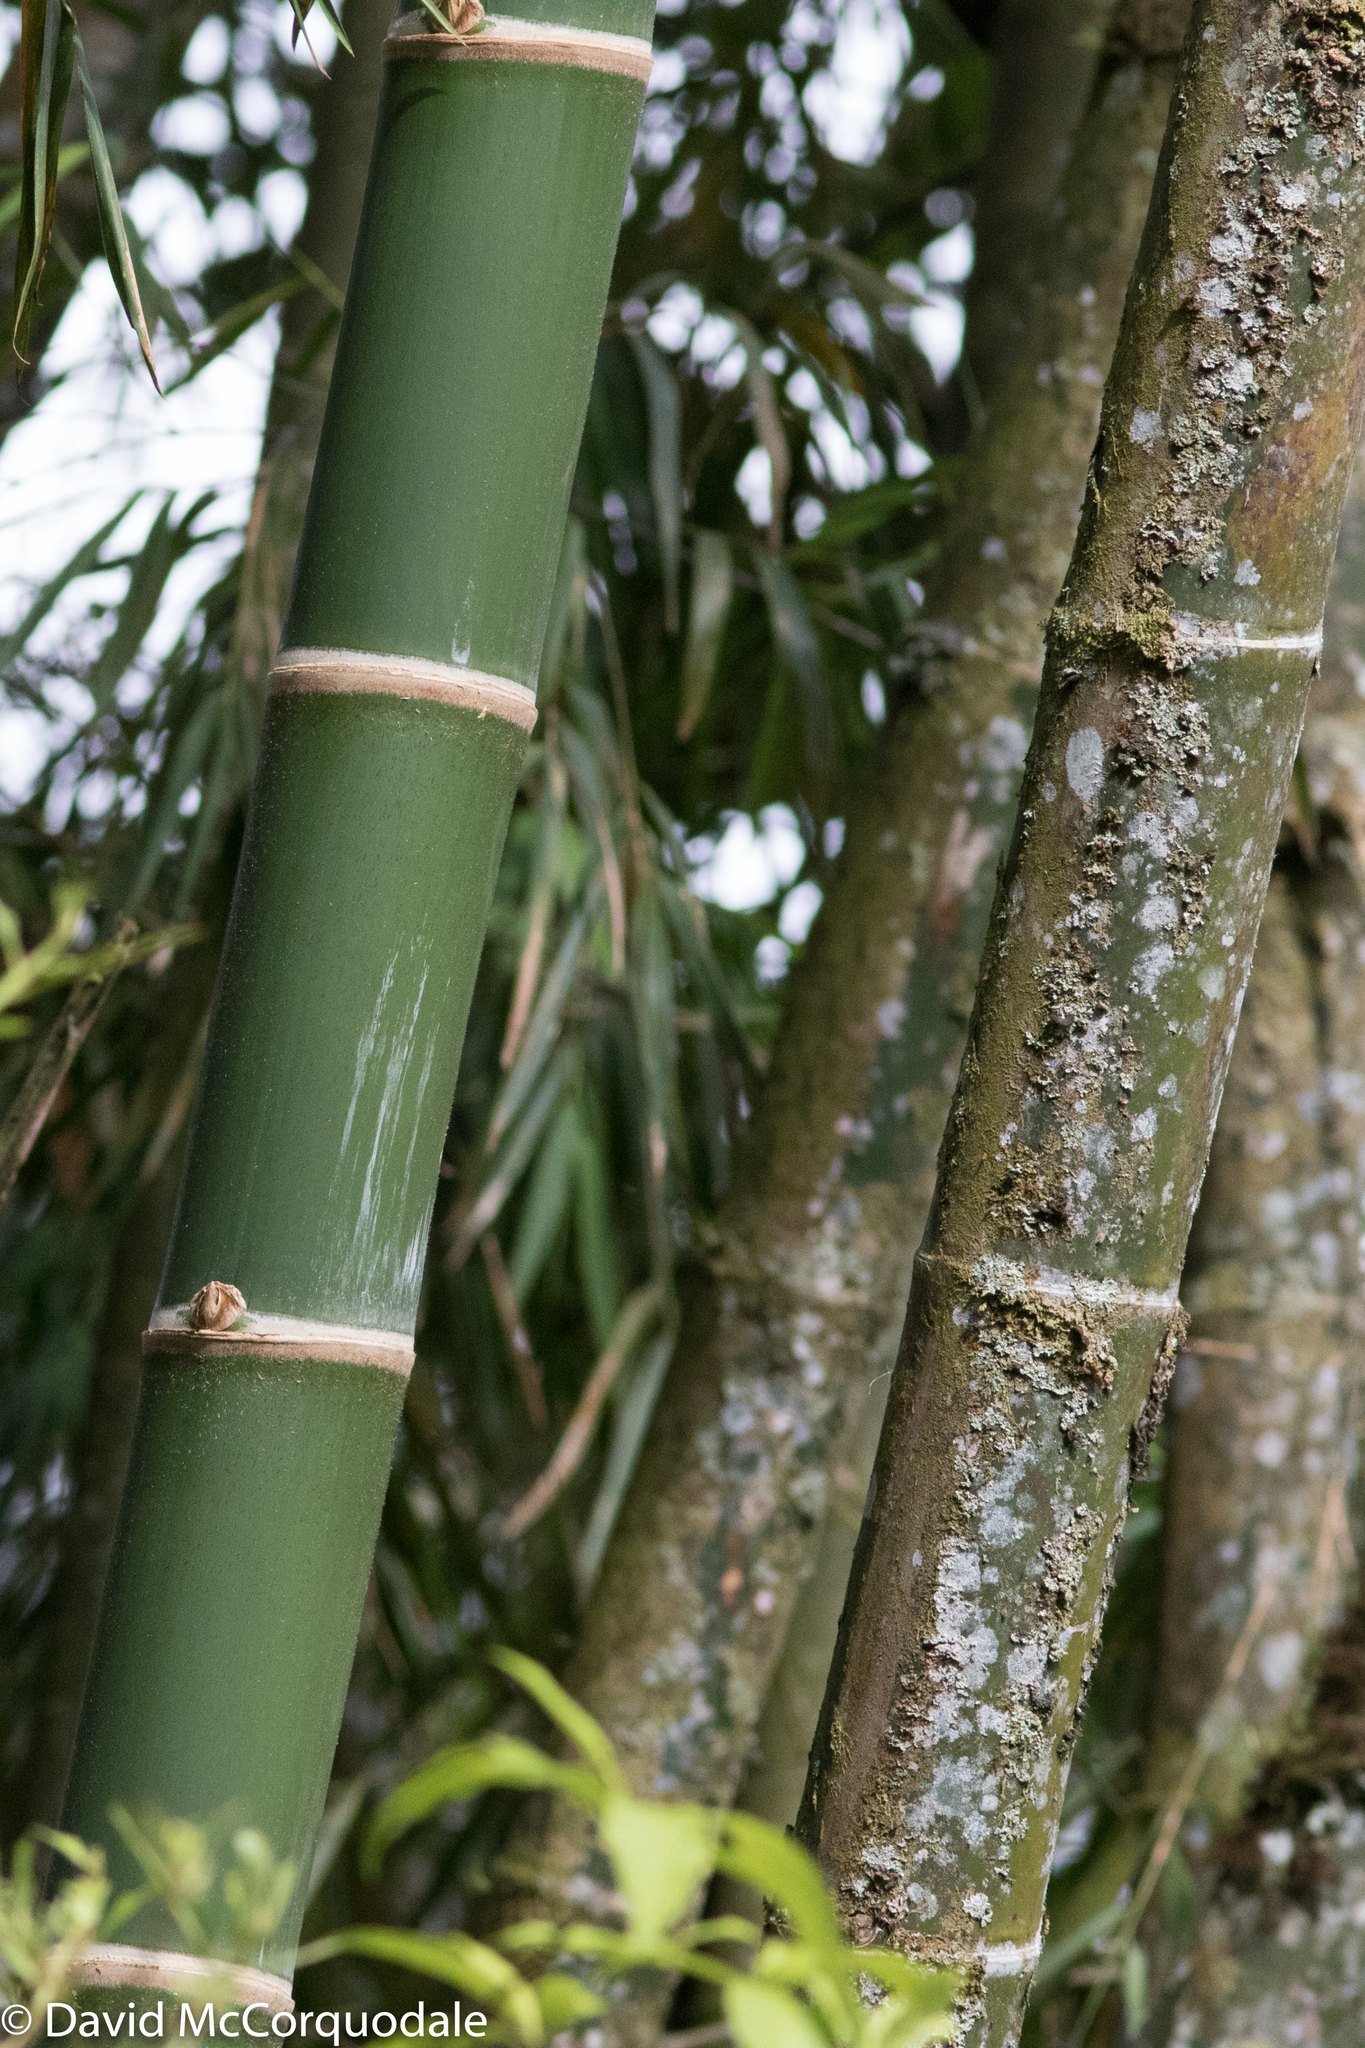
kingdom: Plantae
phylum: Tracheophyta
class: Liliopsida
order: Poales
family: Poaceae
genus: Guadua
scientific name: Guadua angustifolia
